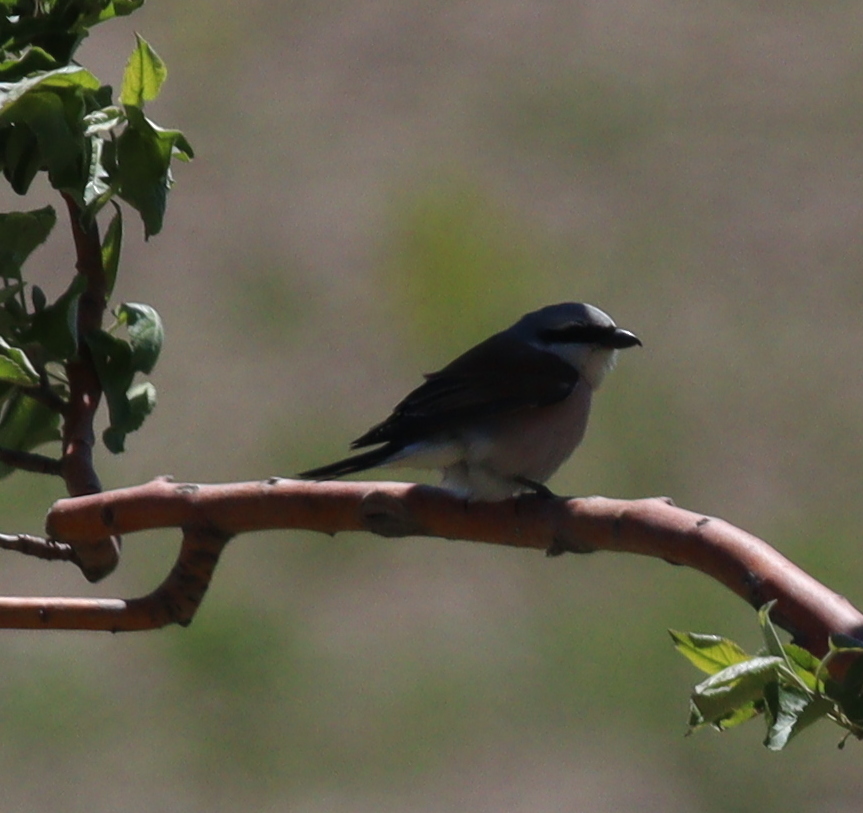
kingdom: Animalia
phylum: Chordata
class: Aves
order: Passeriformes
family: Laniidae
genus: Lanius
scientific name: Lanius collurio
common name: Red-backed shrike
